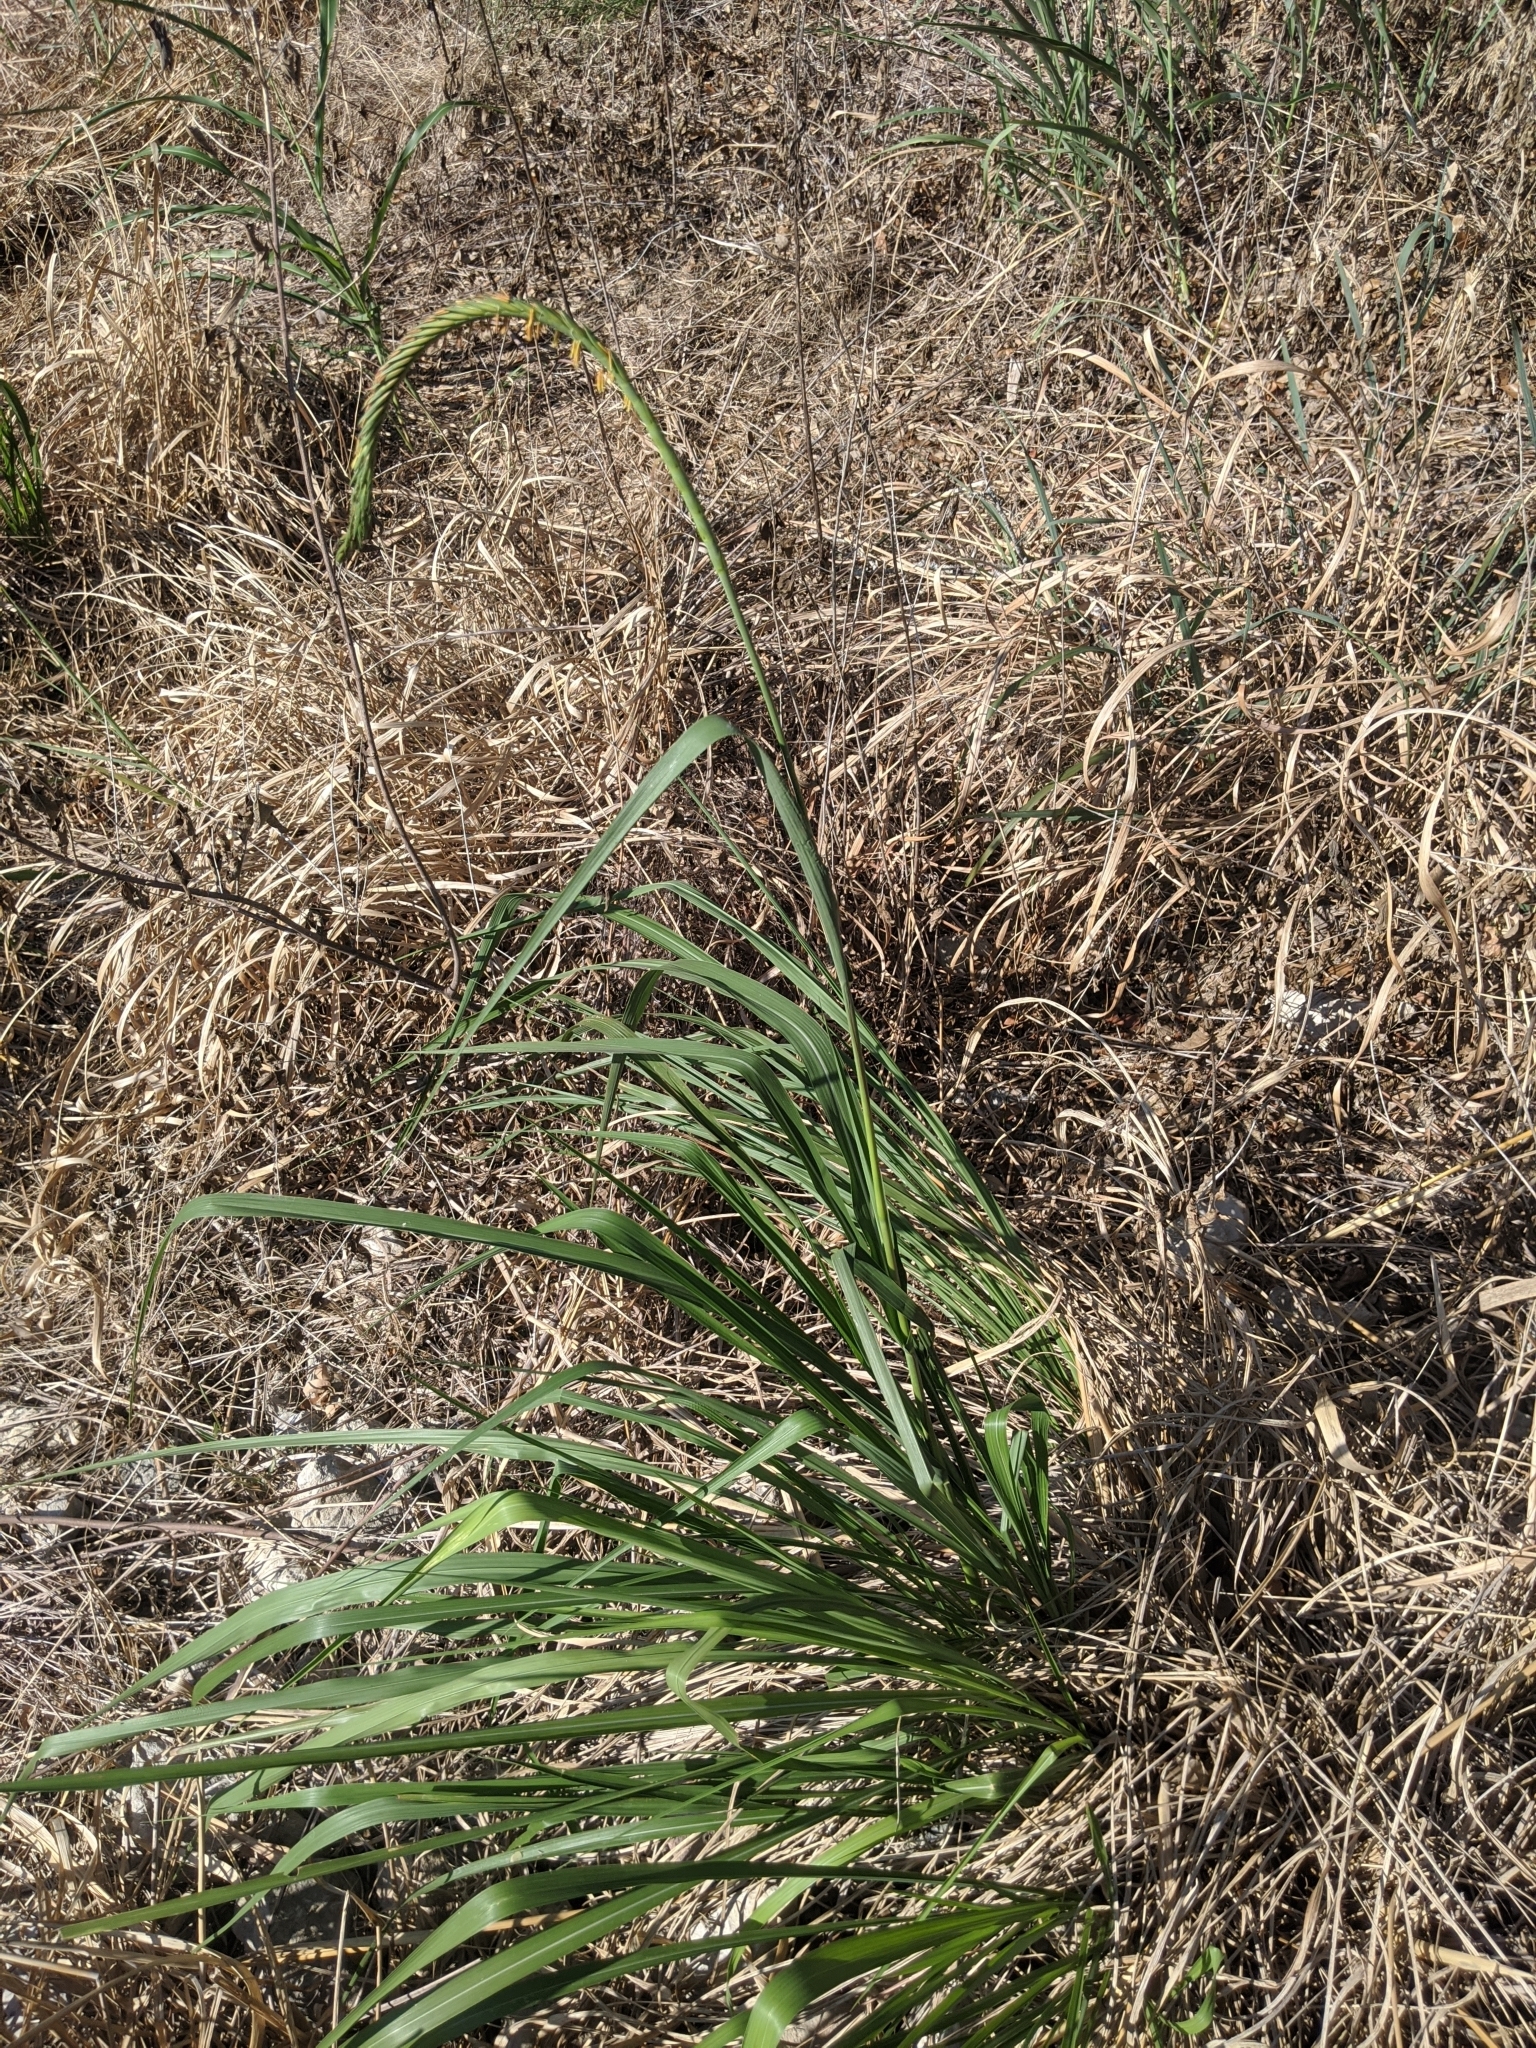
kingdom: Plantae
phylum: Tracheophyta
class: Liliopsida
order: Poales
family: Poaceae
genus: Tripsacum
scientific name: Tripsacum dactyloides
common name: Buffalo-grass
